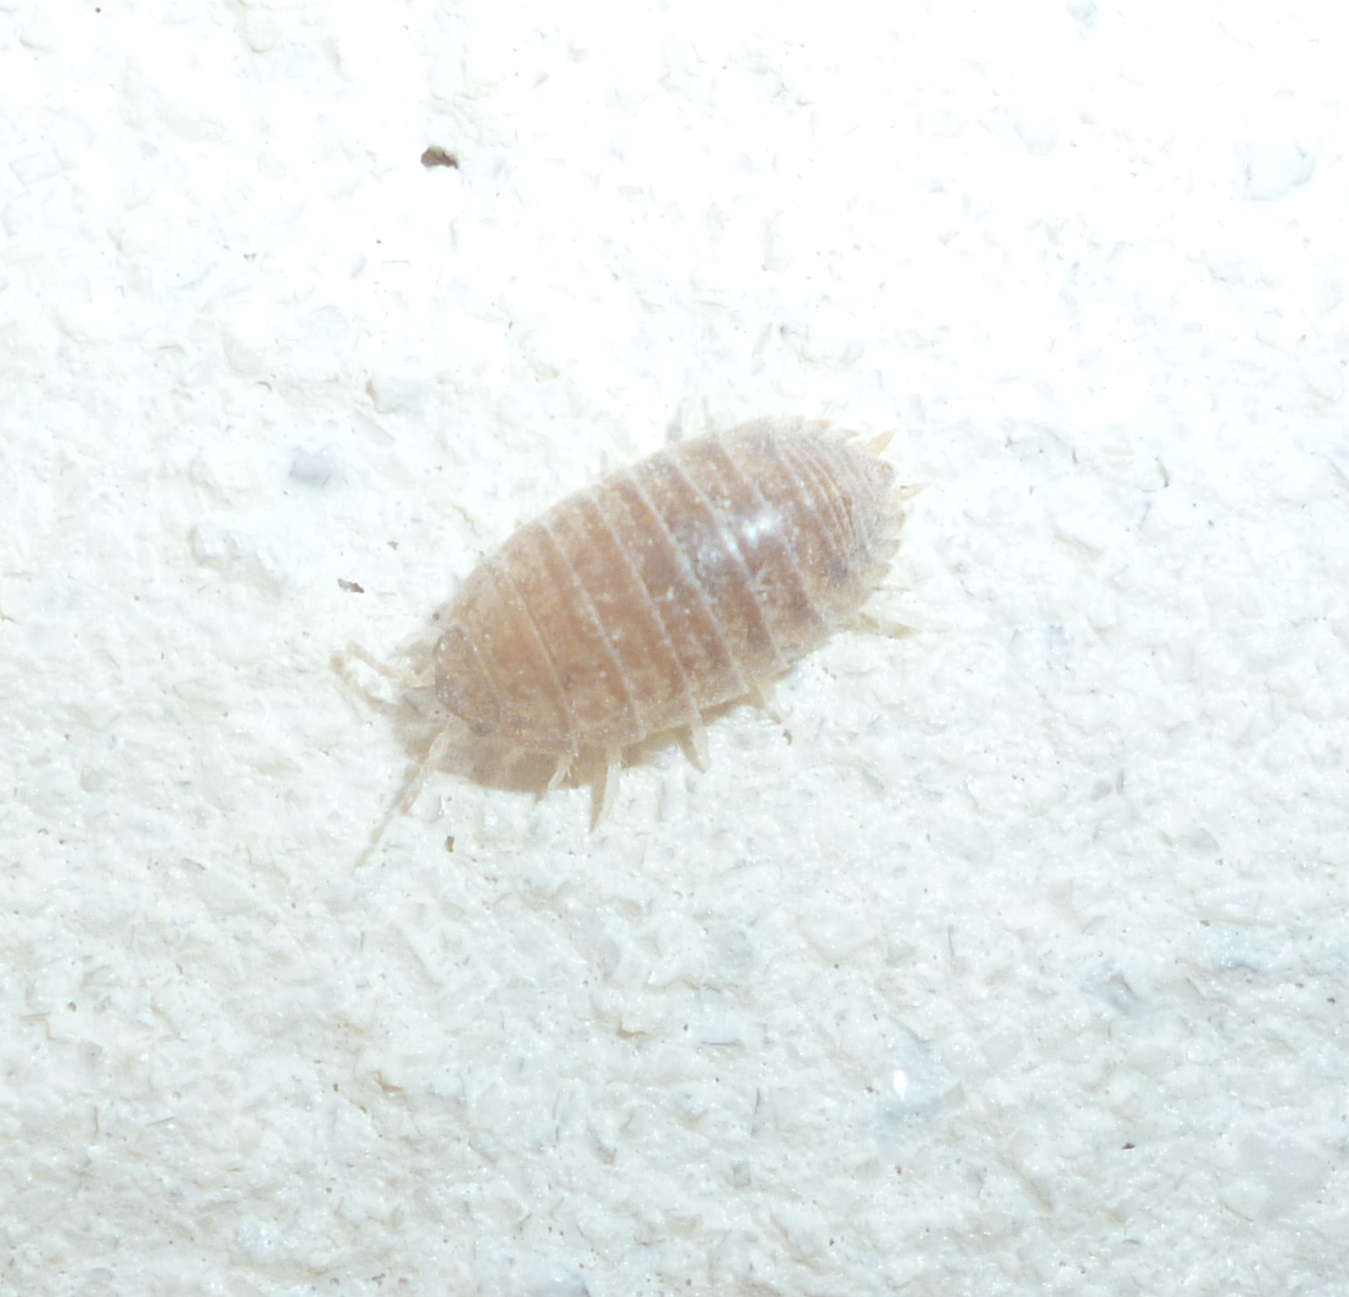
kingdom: Animalia
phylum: Arthropoda
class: Malacostraca
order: Isopoda
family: Porcellionidae
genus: Leptotrichus
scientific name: Leptotrichus panzerii
